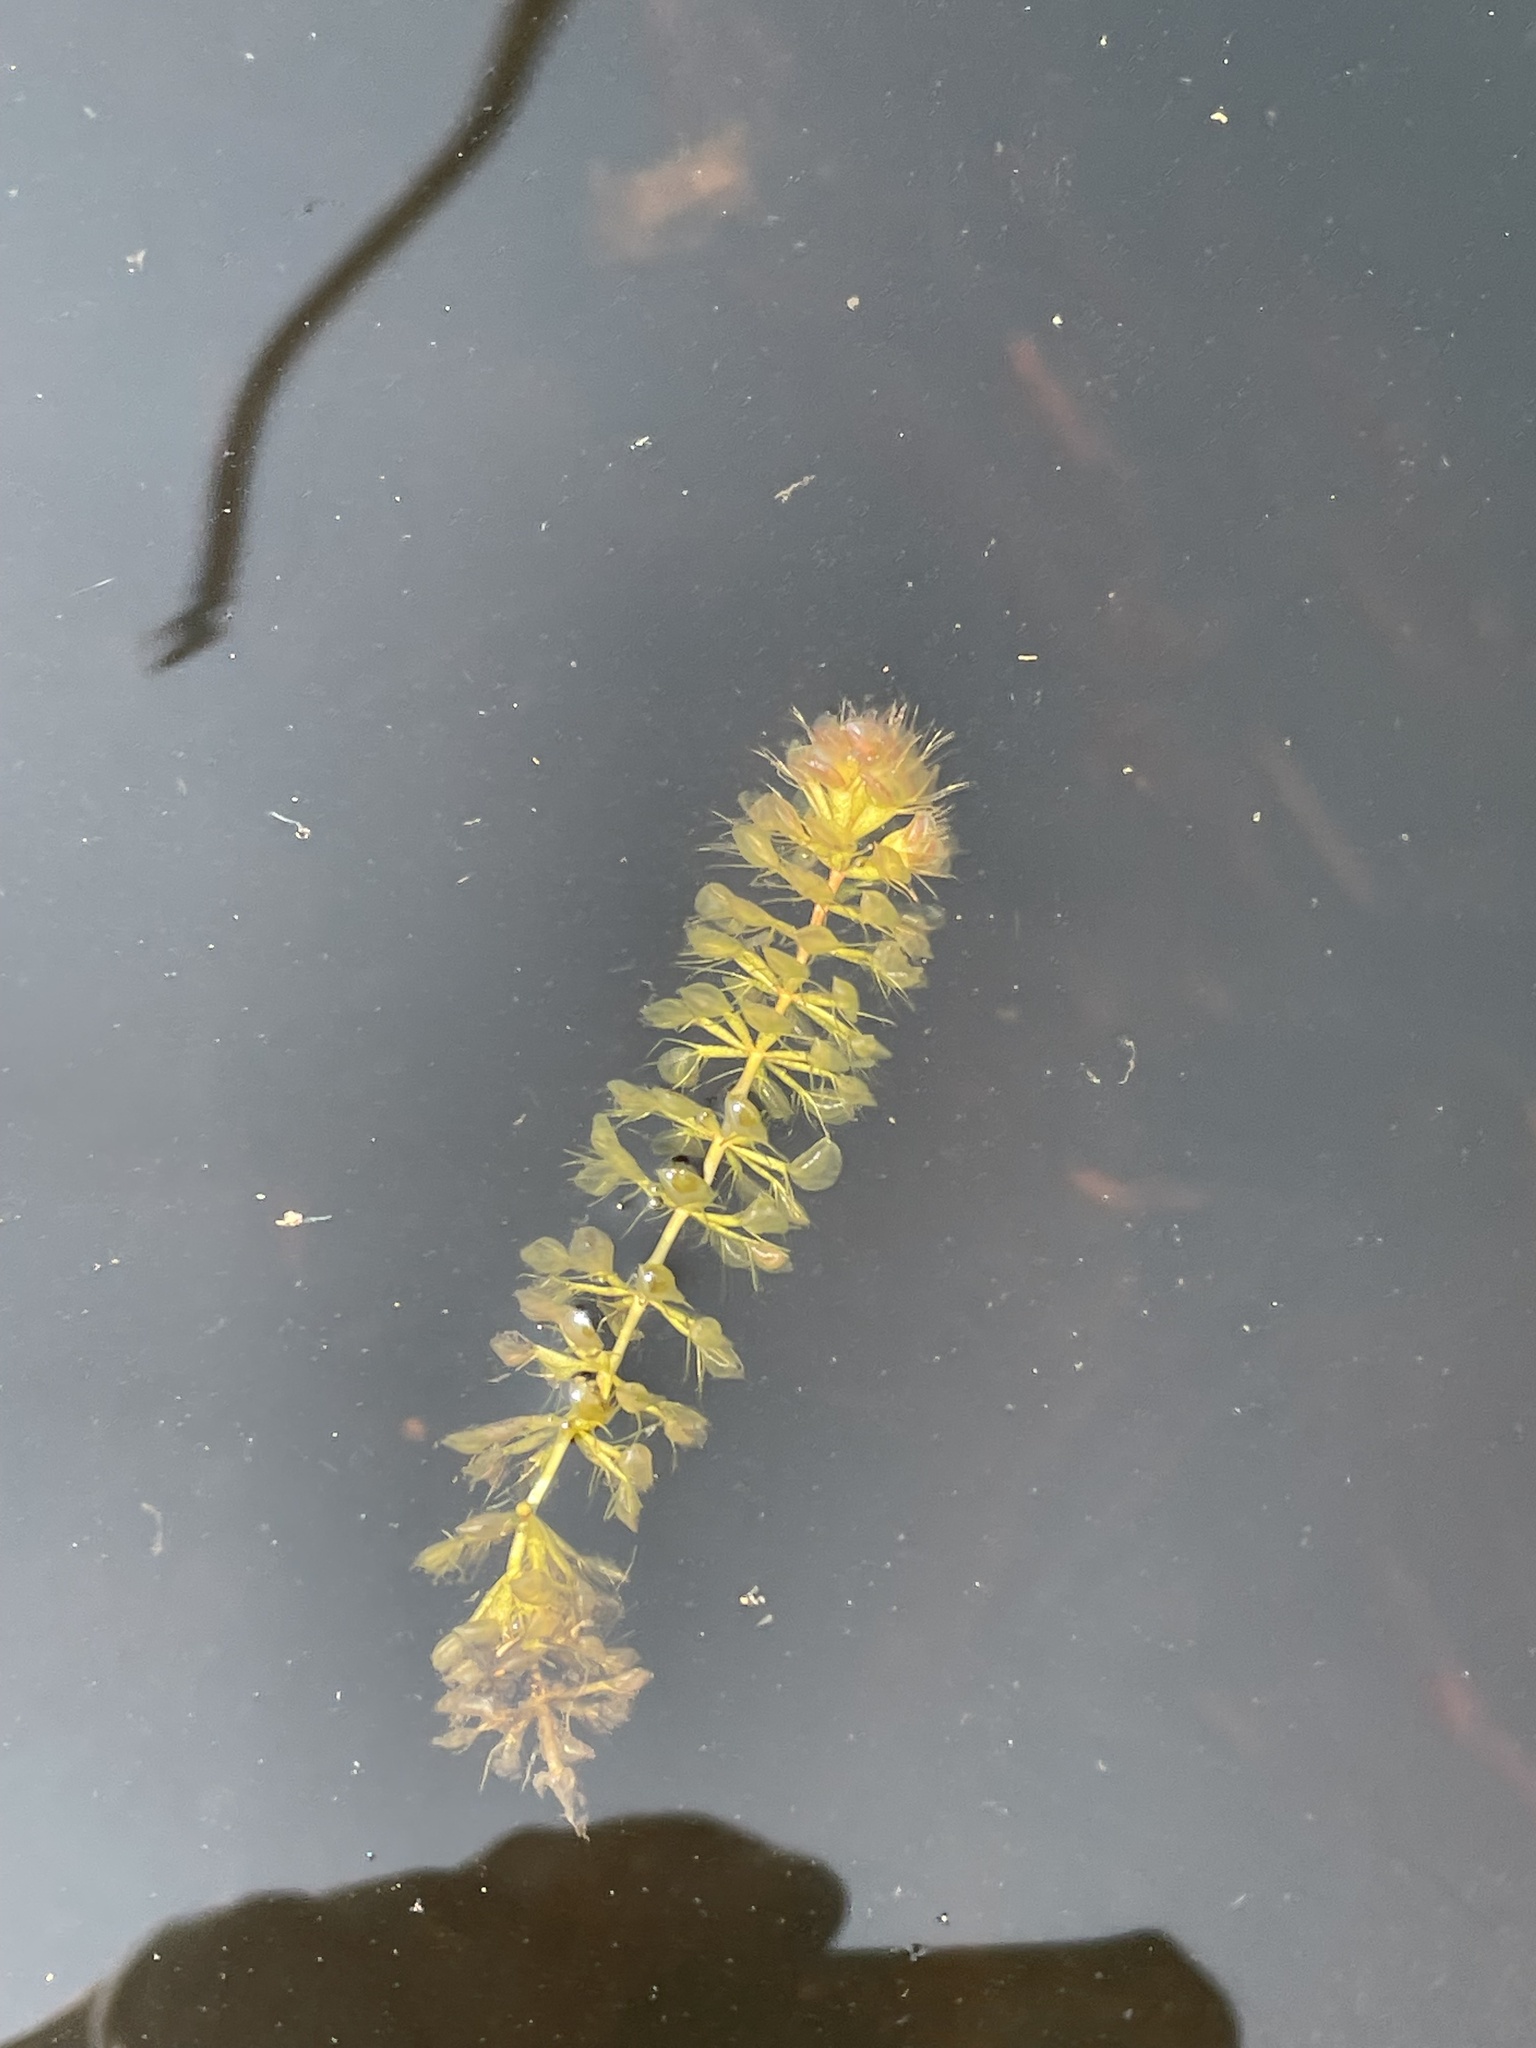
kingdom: Plantae
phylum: Tracheophyta
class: Magnoliopsida
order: Caryophyllales
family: Droseraceae
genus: Aldrovanda
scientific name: Aldrovanda vesiculosa
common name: Waterwheel plant
